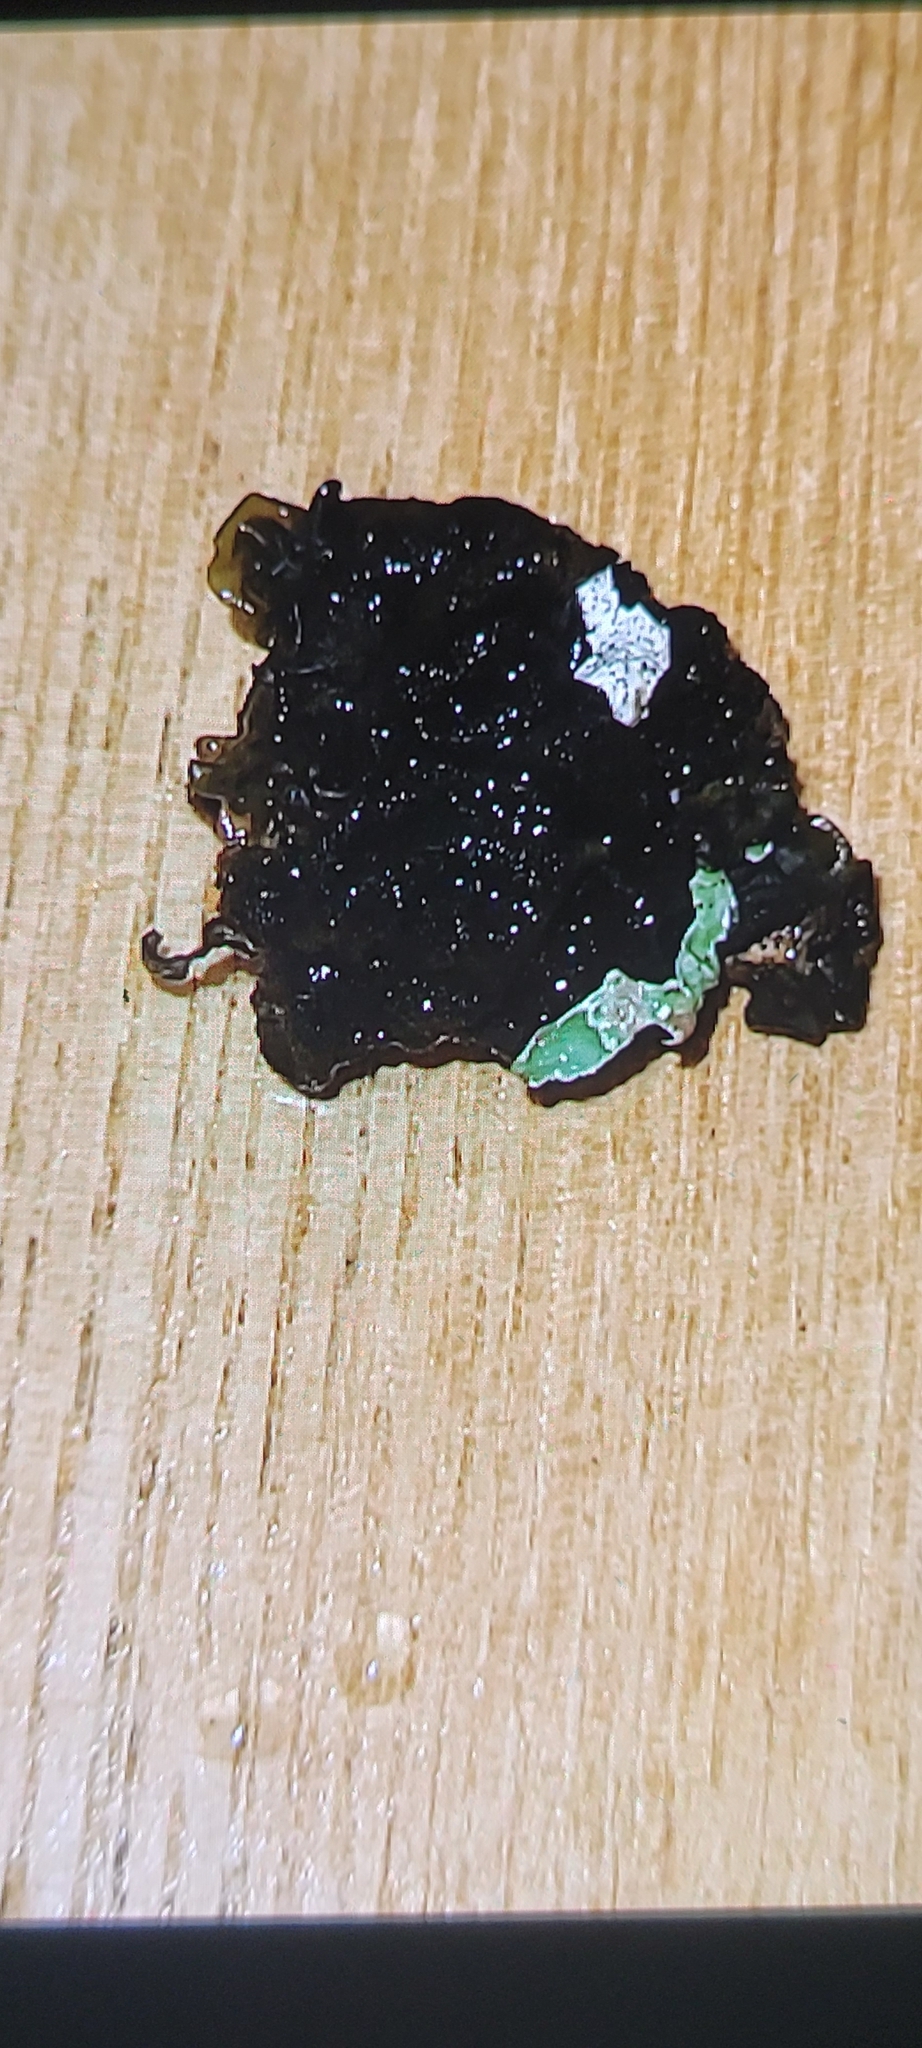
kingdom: Fungi
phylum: Basidiomycota
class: Agaricomycetes
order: Auriculariales
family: Auriculariaceae
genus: Exidia
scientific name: Exidia nigricans
